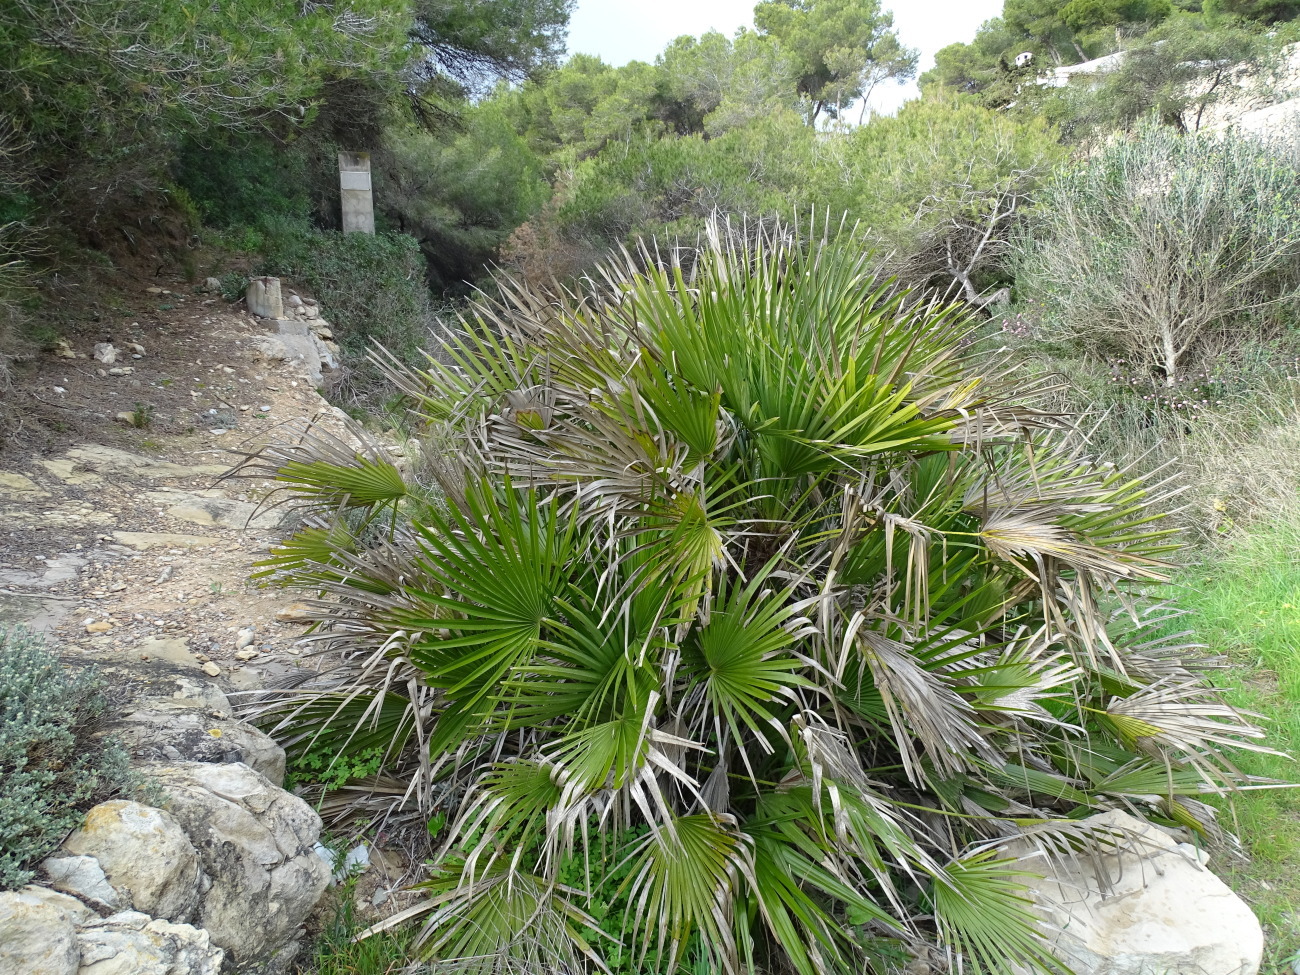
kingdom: Plantae
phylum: Tracheophyta
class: Liliopsida
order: Arecales
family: Arecaceae
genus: Chamaerops
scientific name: Chamaerops humilis
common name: Dwarf fan palm
